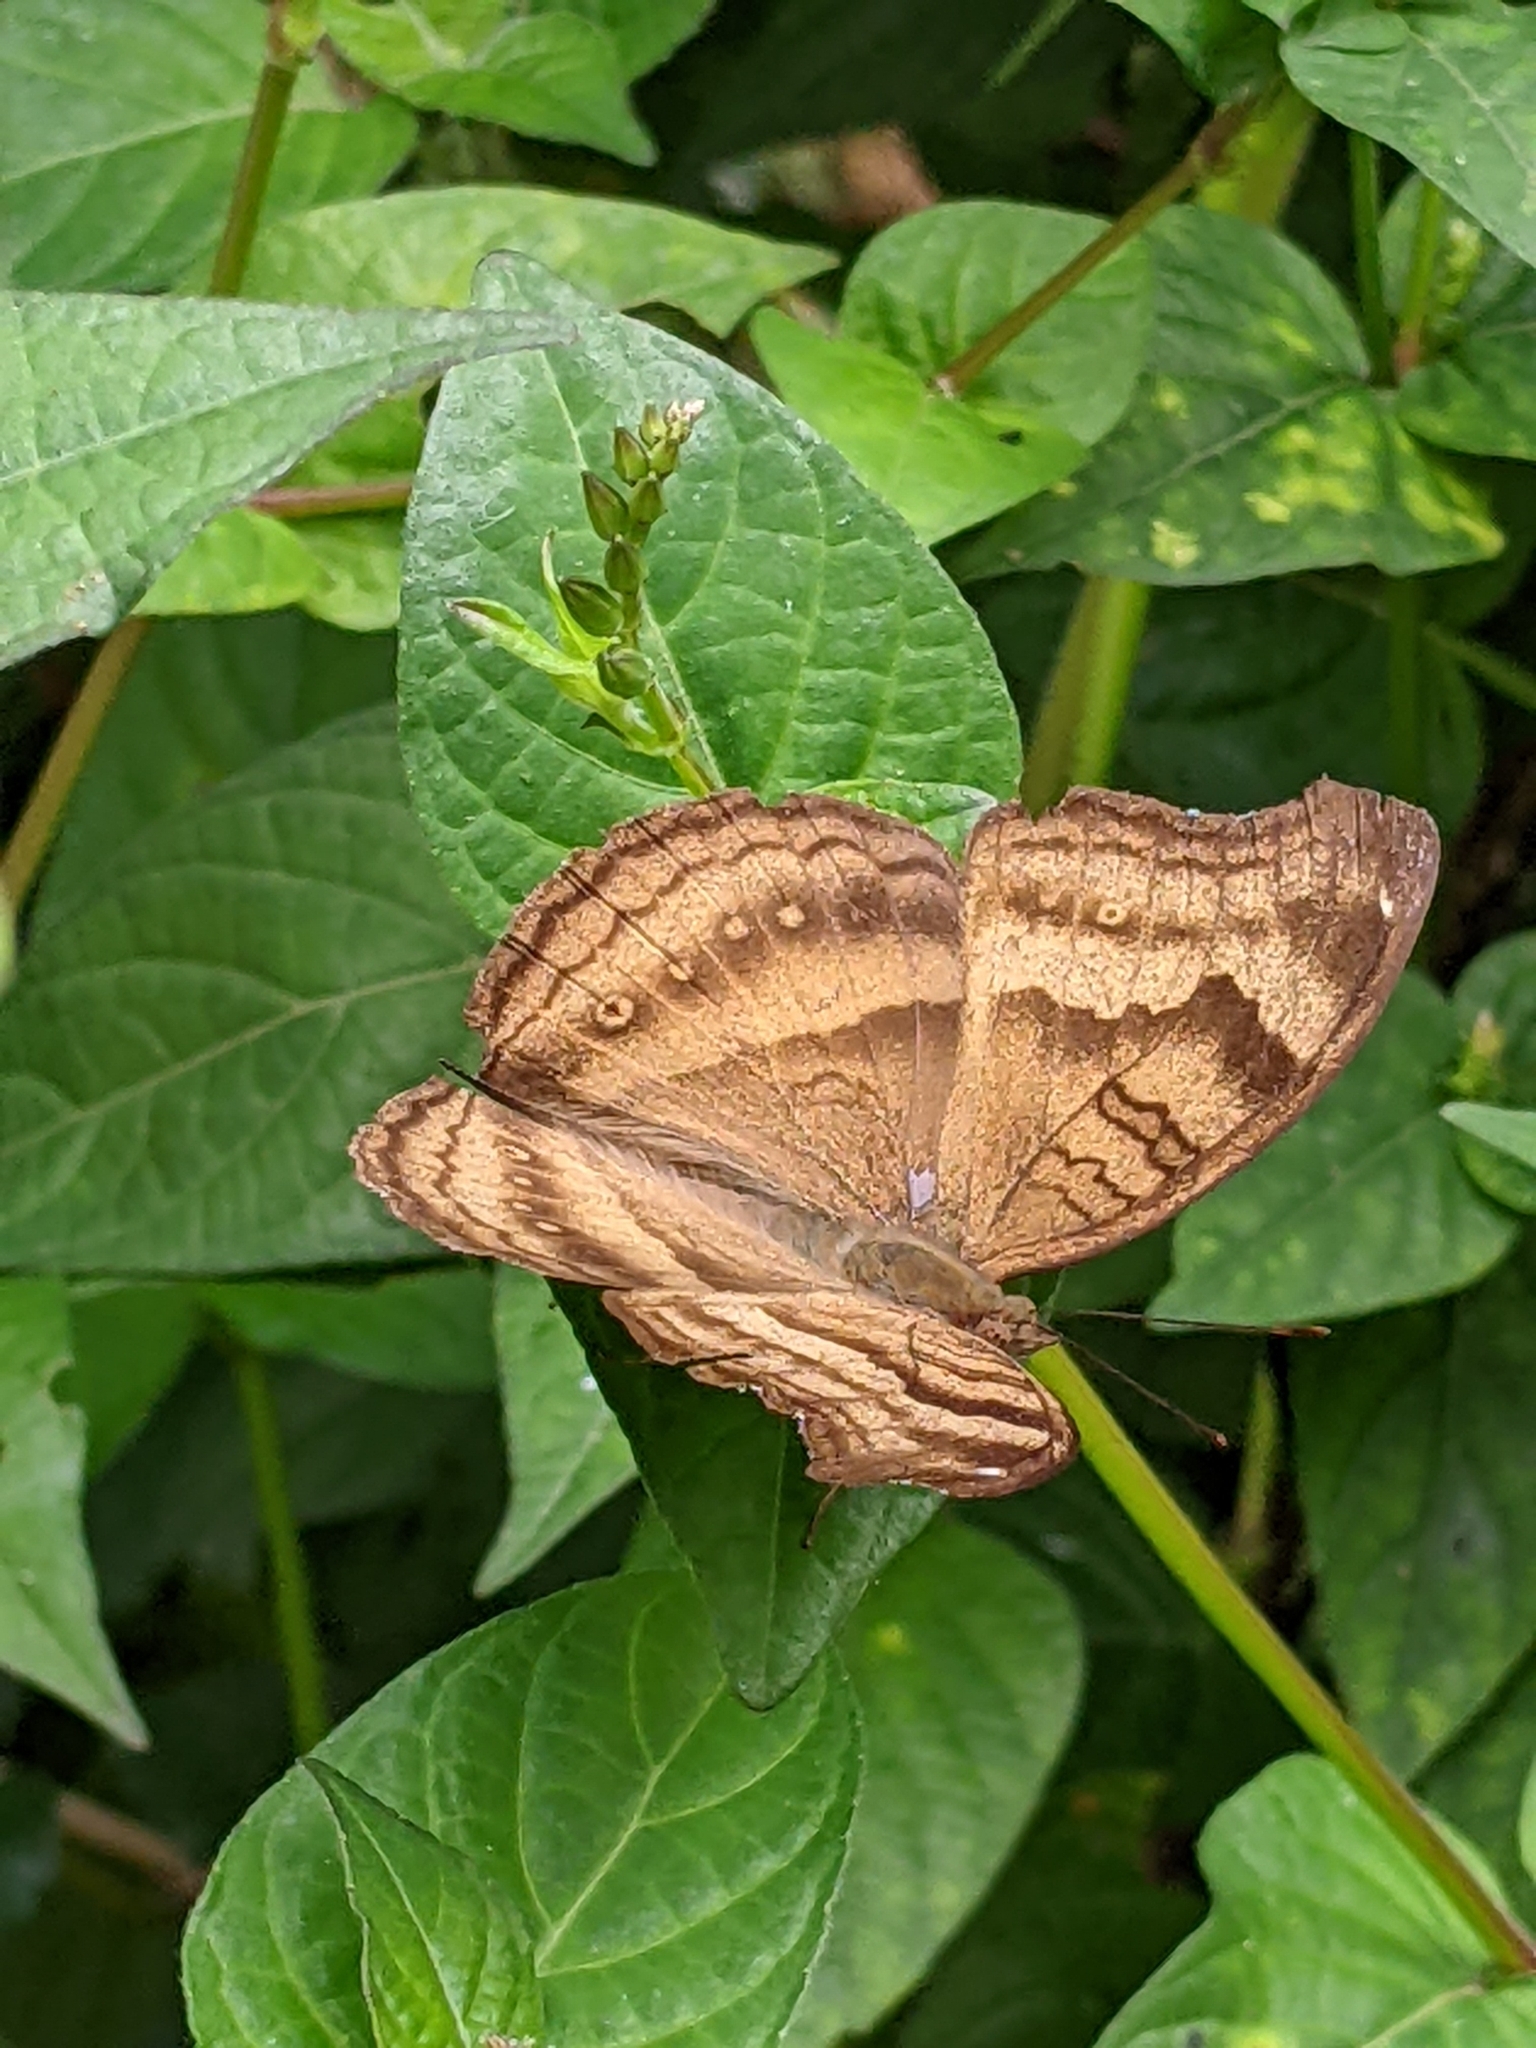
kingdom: Animalia
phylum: Arthropoda
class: Insecta
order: Lepidoptera
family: Nymphalidae
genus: Junonia
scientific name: Junonia iphita
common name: Chocolate pansy
